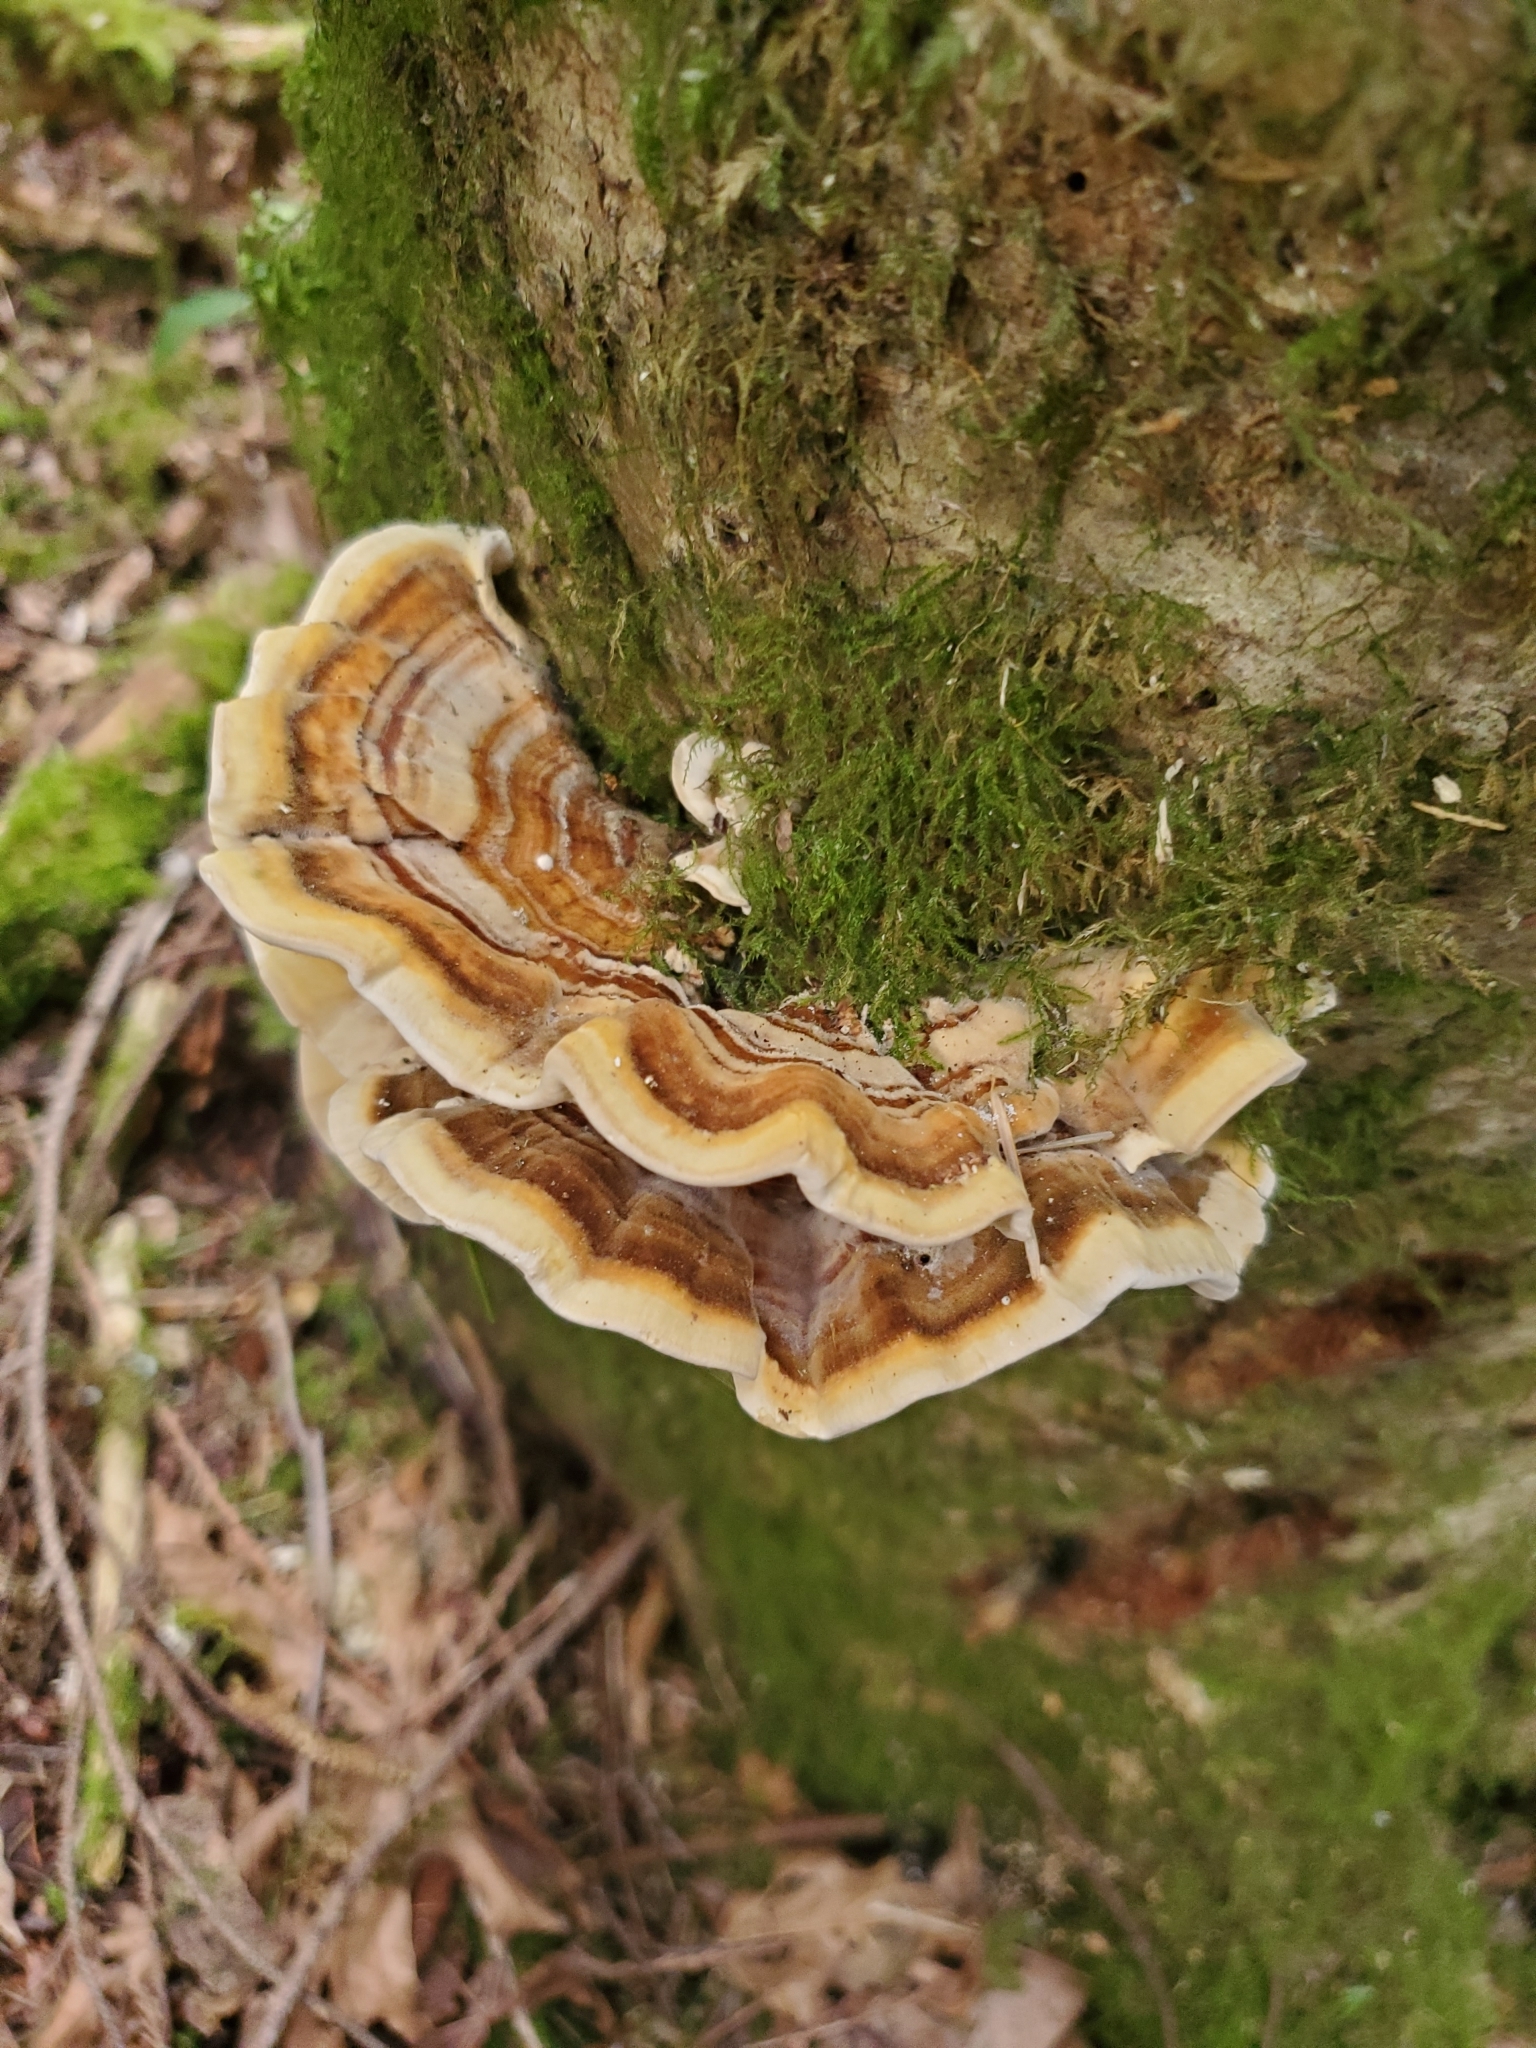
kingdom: Fungi
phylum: Basidiomycota
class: Agaricomycetes
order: Polyporales
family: Polyporaceae
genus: Trametes
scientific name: Trametes versicolor
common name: Turkeytail
